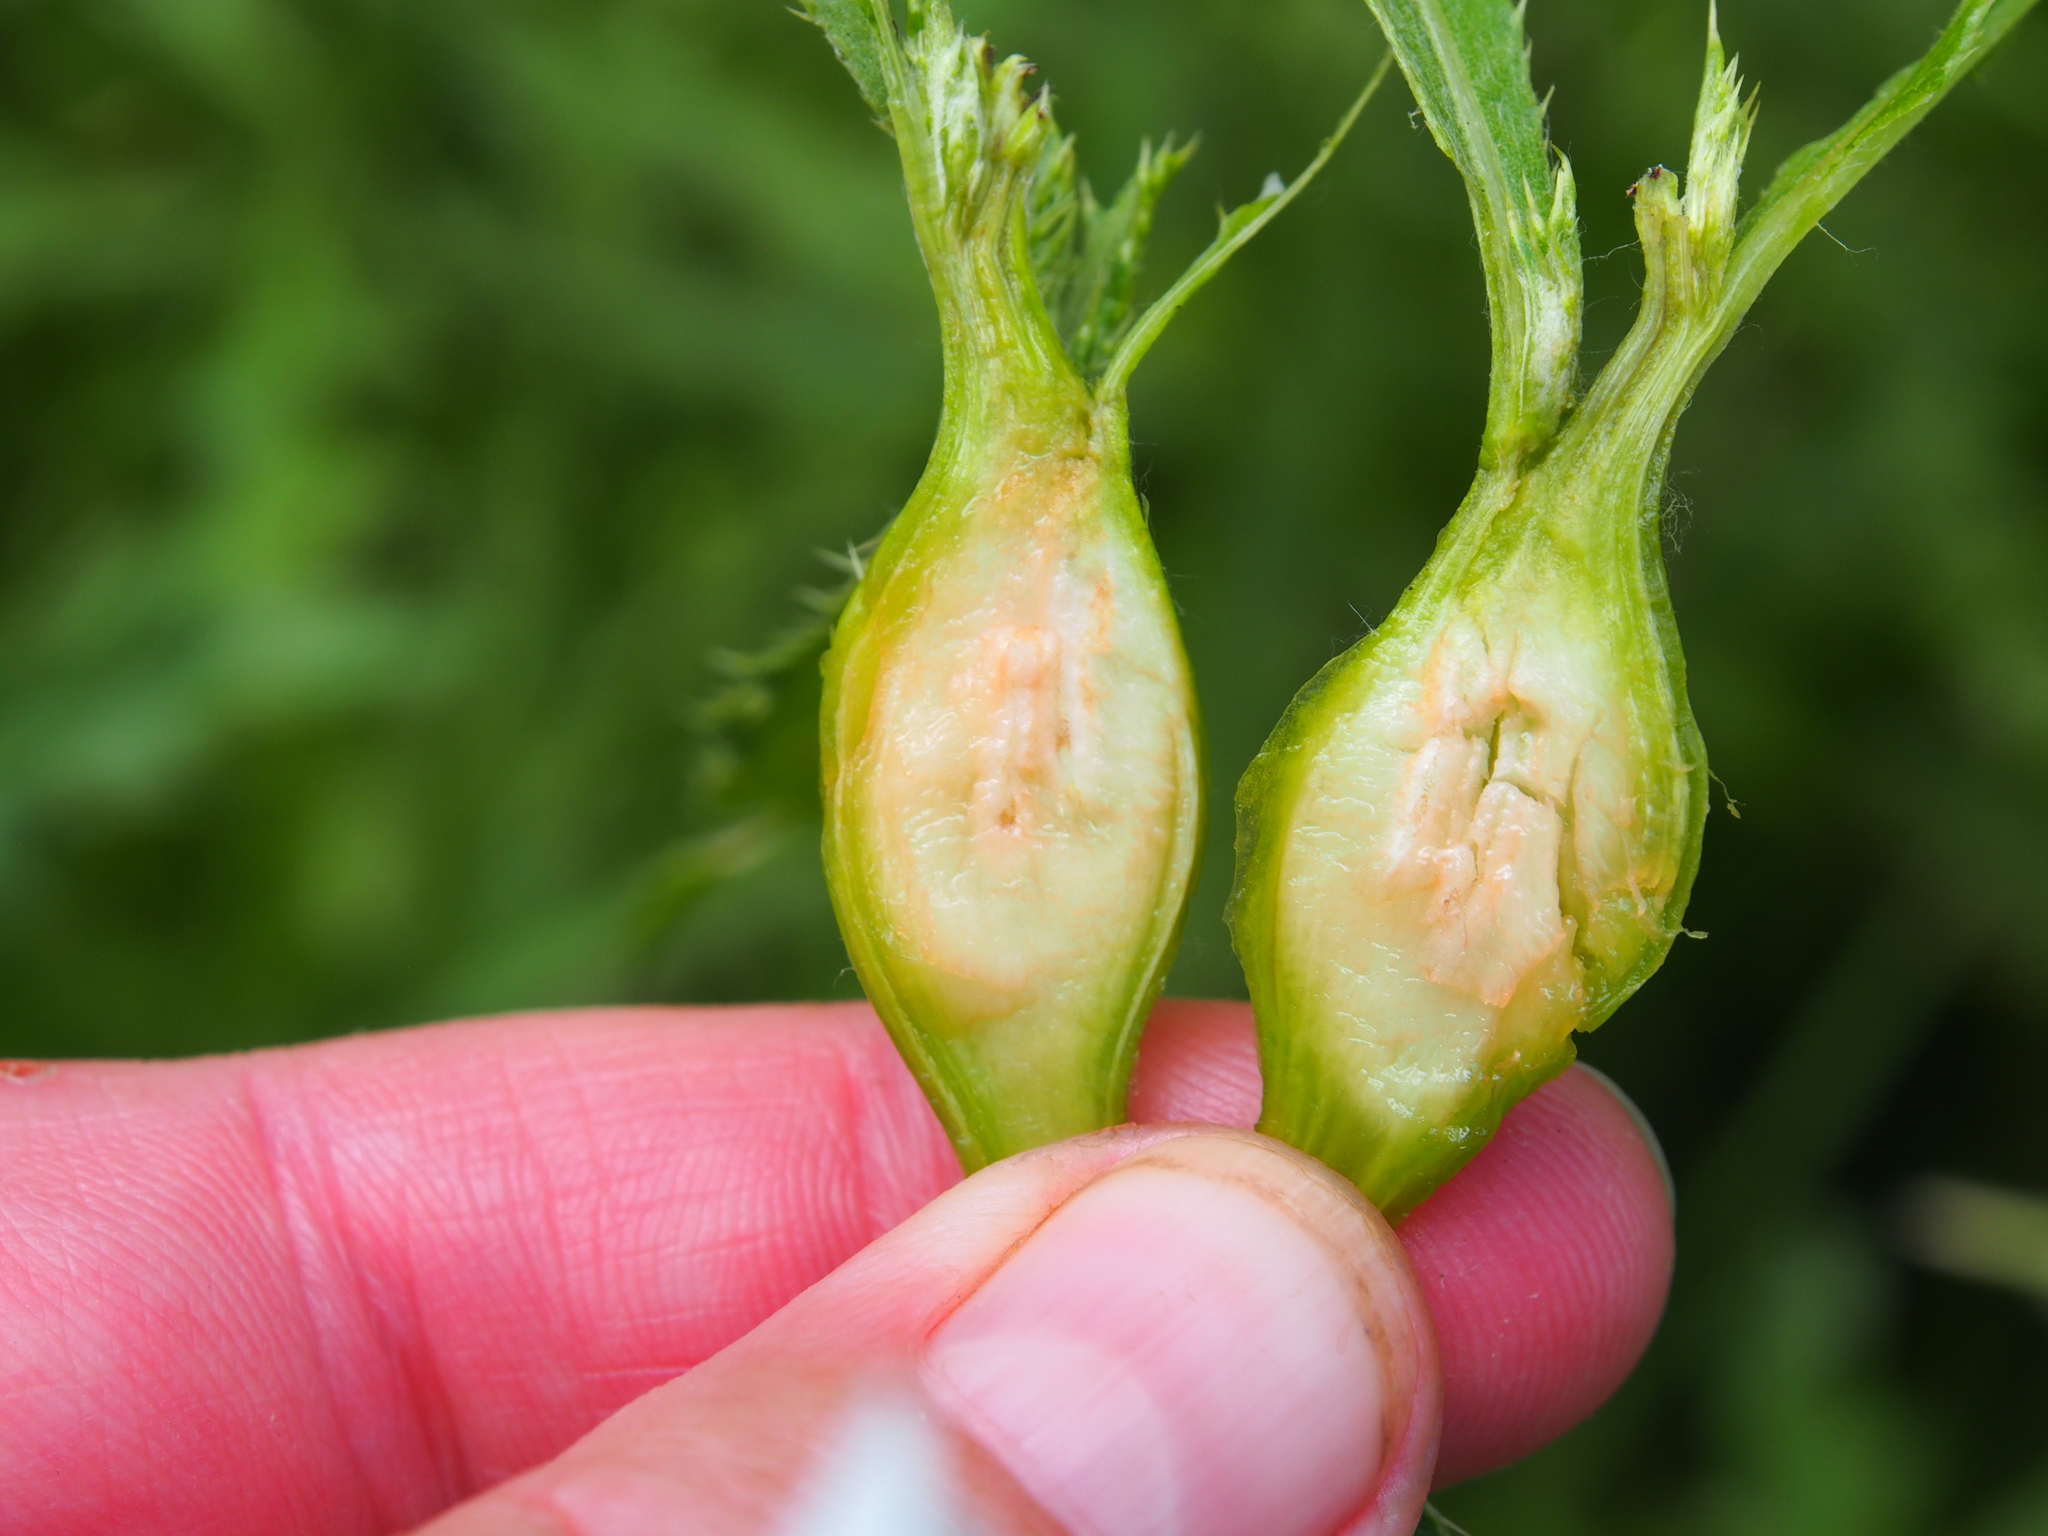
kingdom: Animalia
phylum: Arthropoda
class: Insecta
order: Diptera
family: Tephritidae
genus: Urophora
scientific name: Urophora cardui
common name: Fruit fly
